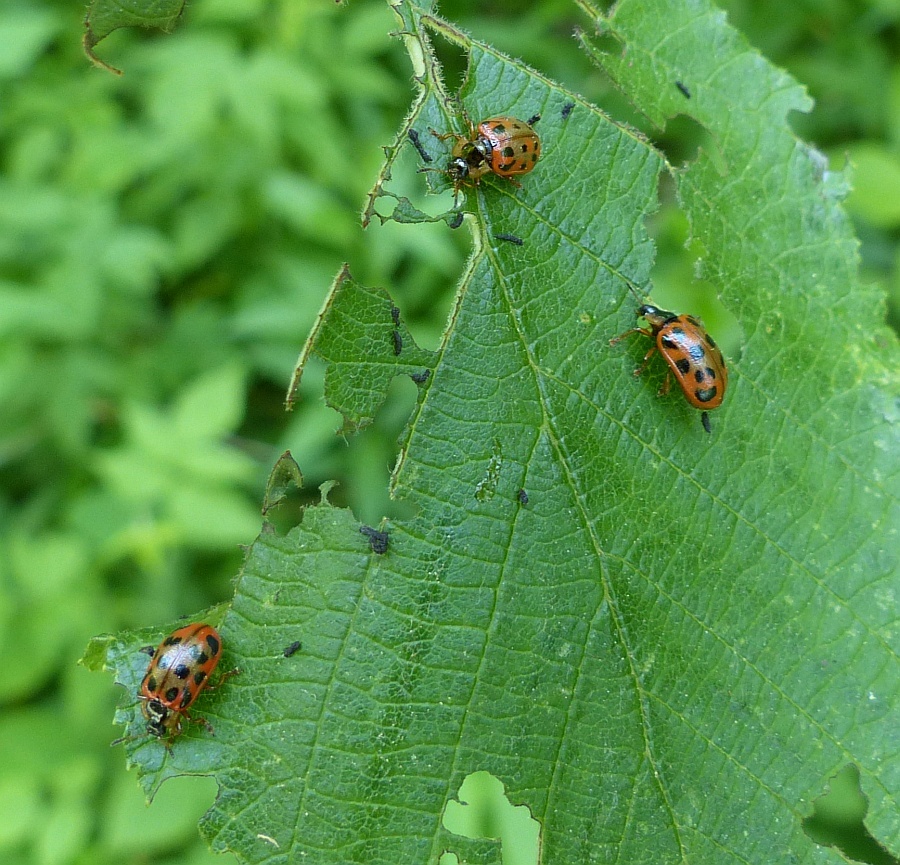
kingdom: Animalia
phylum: Arthropoda
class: Insecta
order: Coleoptera
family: Chrysomelidae
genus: Chrysomela
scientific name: Chrysomela mainensis
